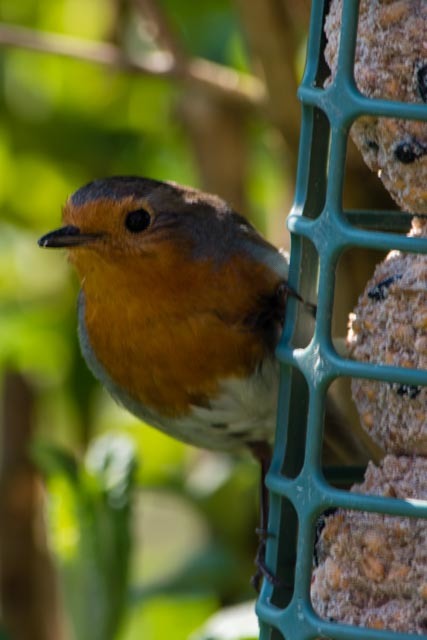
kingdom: Animalia
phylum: Chordata
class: Aves
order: Passeriformes
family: Muscicapidae
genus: Erithacus
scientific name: Erithacus rubecula
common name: European robin
